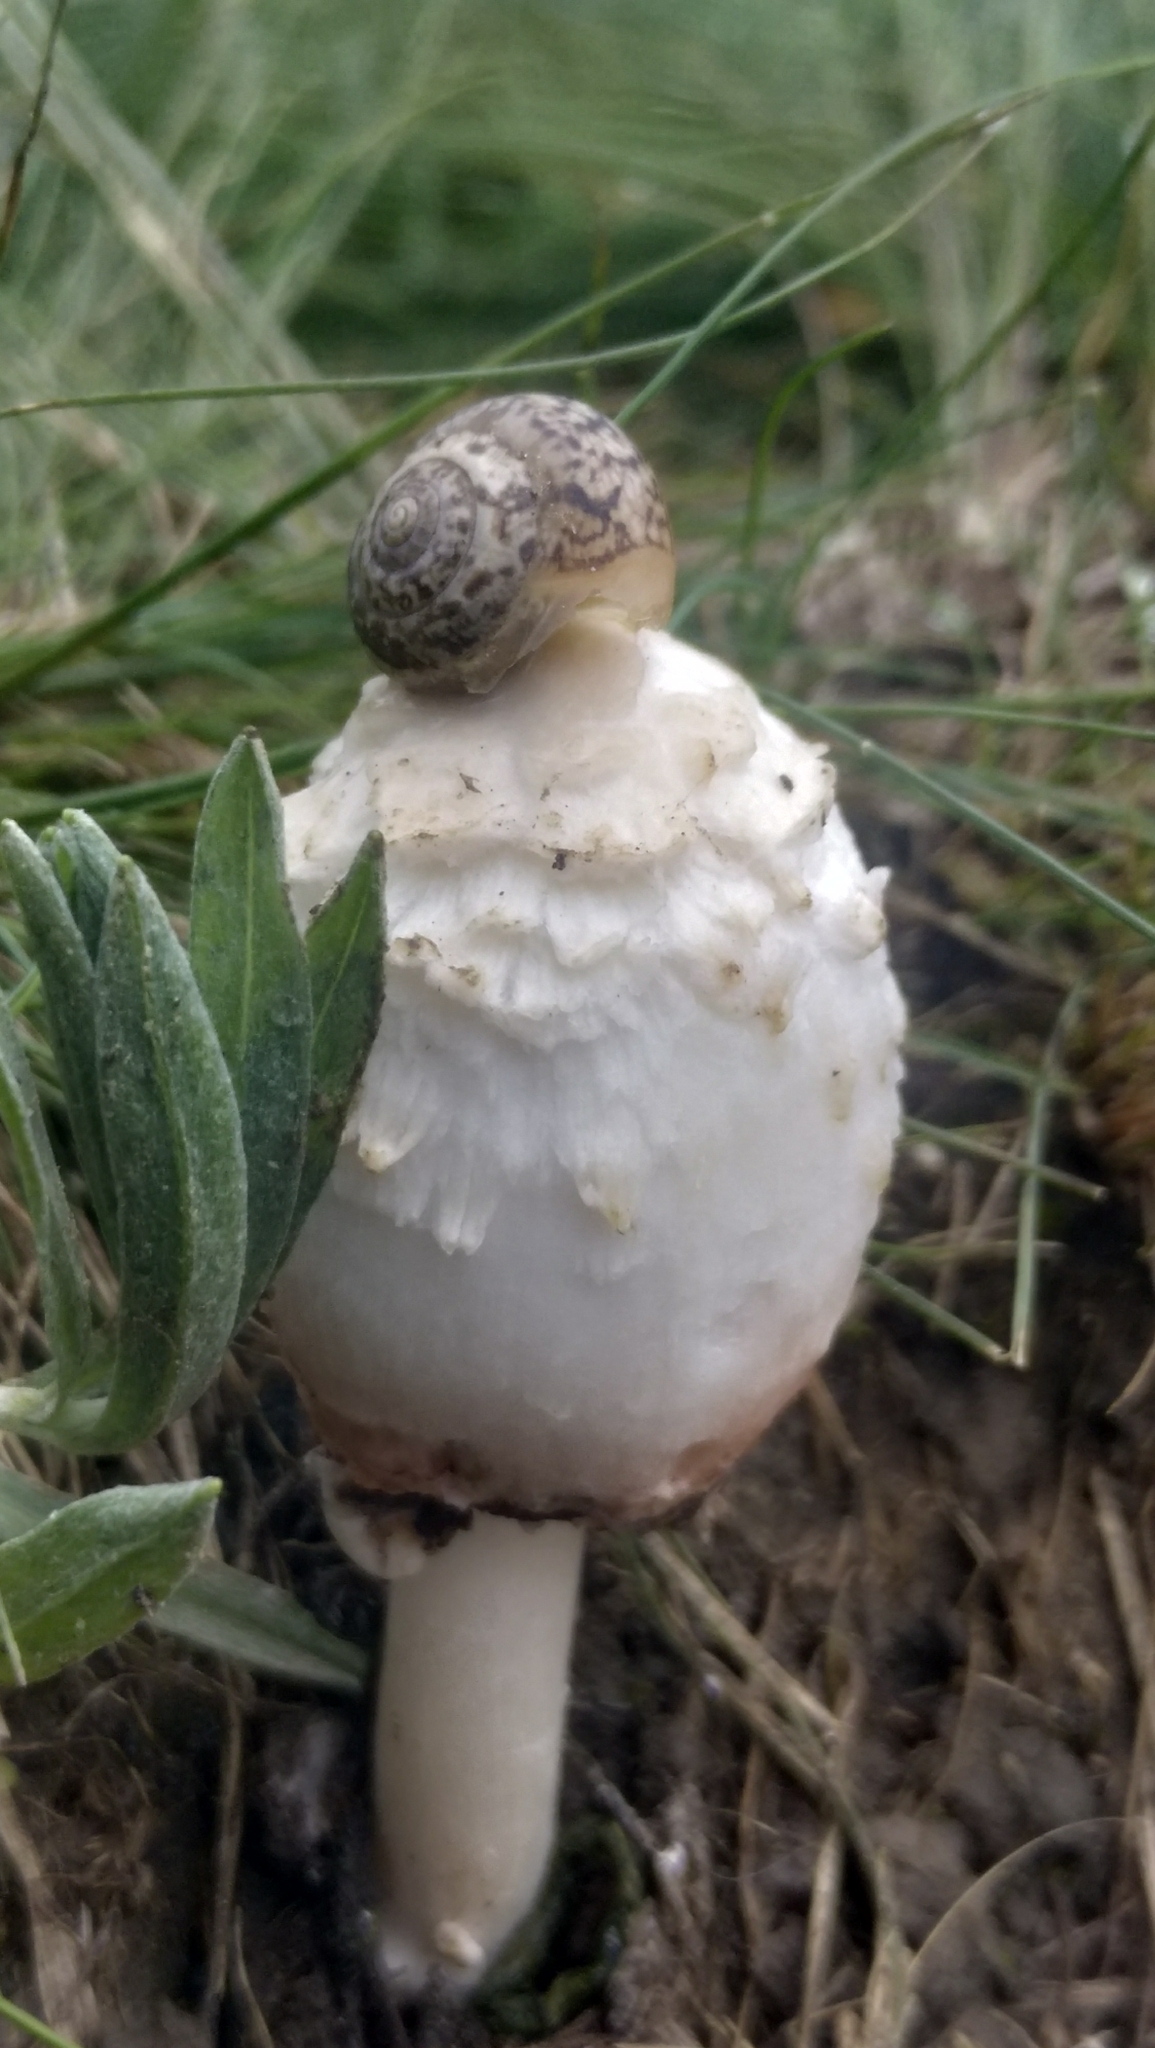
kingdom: Animalia
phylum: Mollusca
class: Gastropoda
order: Stylommatophora
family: Hygromiidae
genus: Monacha
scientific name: Monacha fruticola
